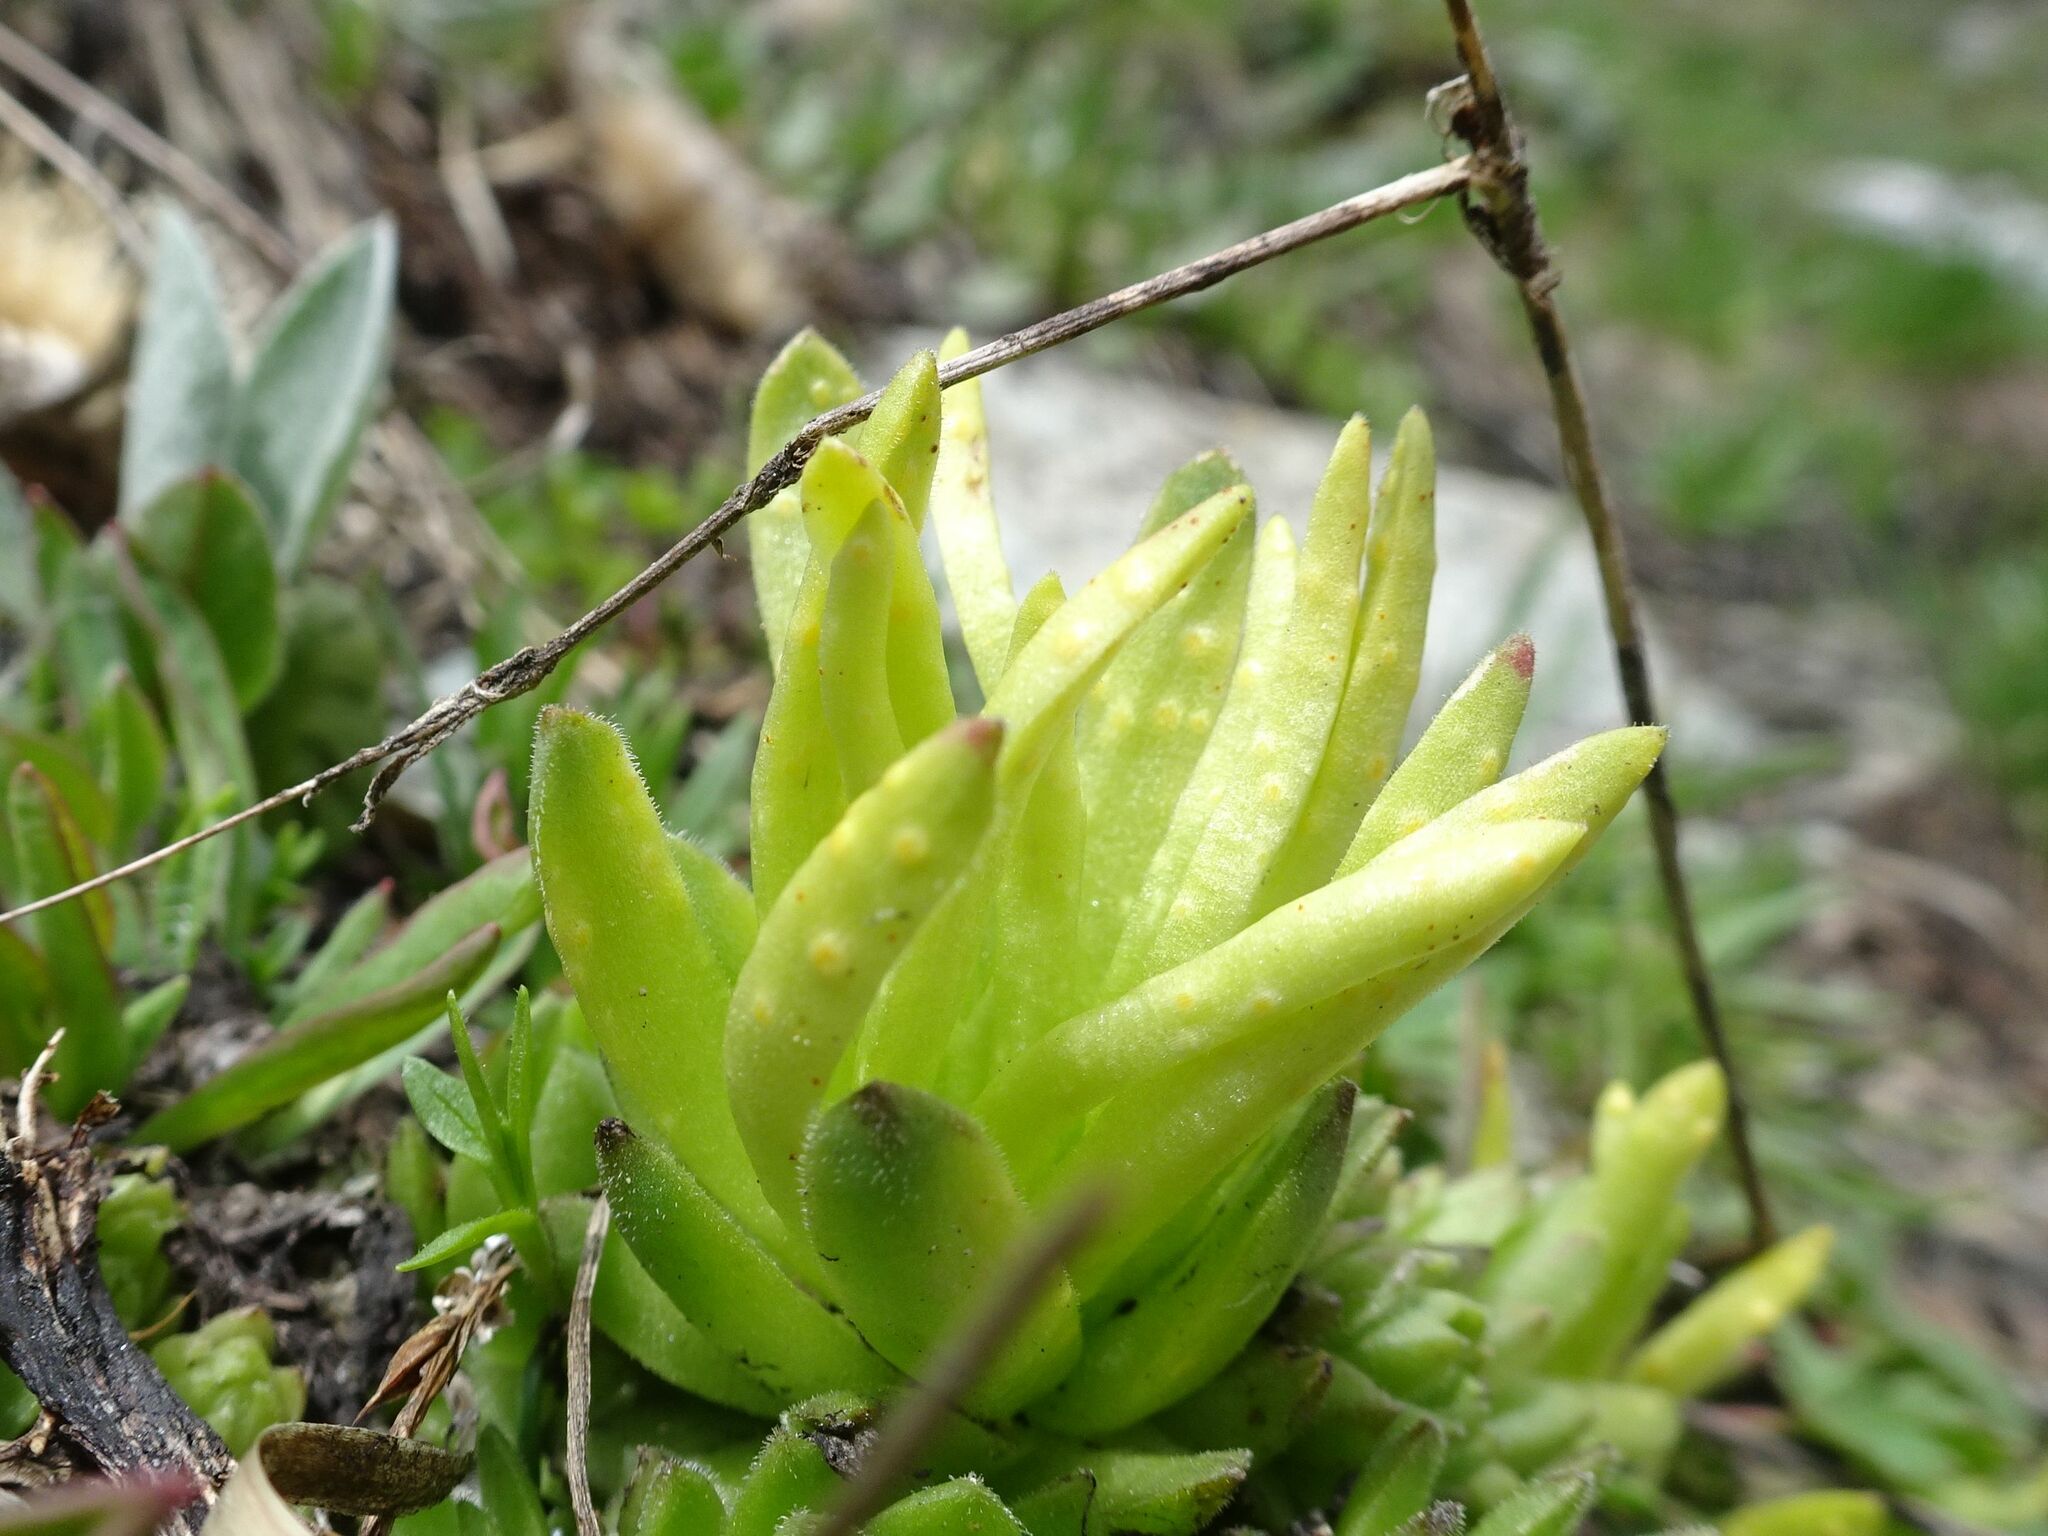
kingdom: Fungi
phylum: Basidiomycota
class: Pucciniomycetes
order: Pucciniales
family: Pucciniaceae
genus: Endophyllum
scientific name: Endophyllum sempervivi
